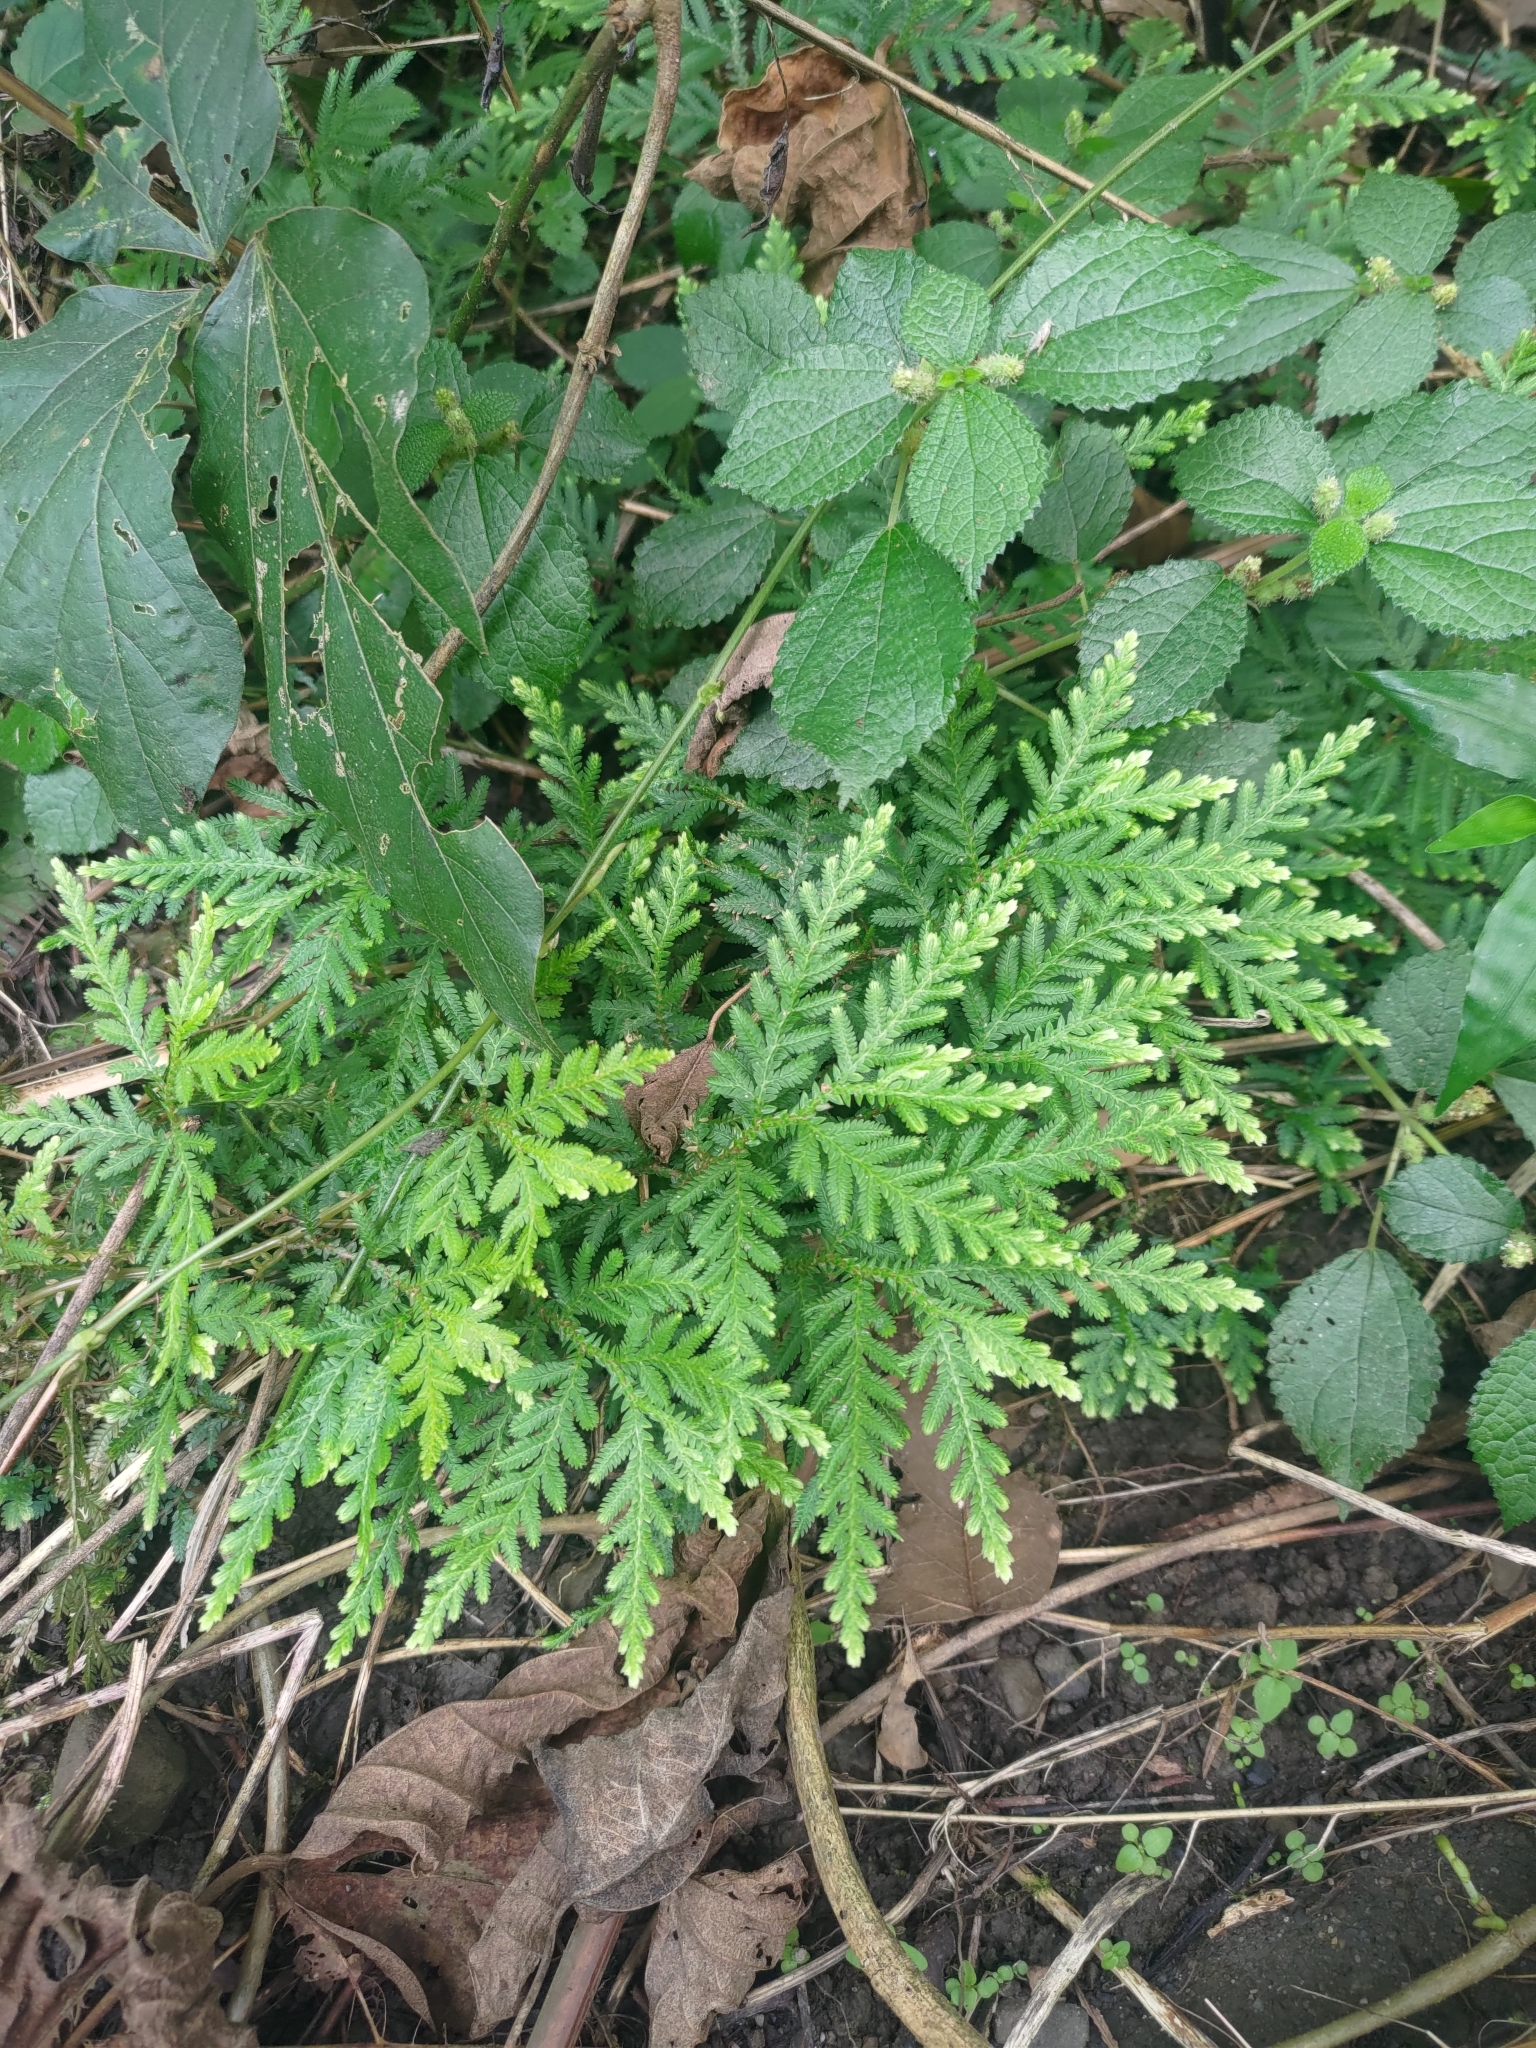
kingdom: Plantae
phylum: Tracheophyta
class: Lycopodiopsida
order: Selaginellales
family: Selaginellaceae
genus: Selaginella
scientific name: Selaginella delicatula
